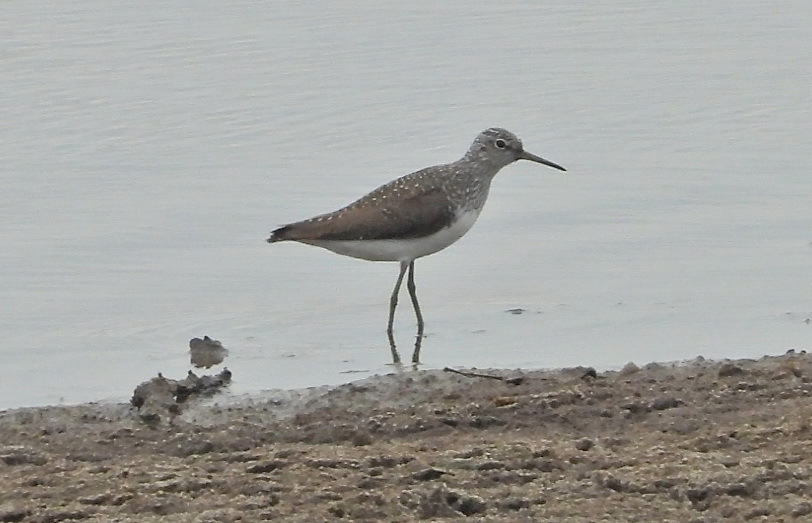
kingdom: Animalia
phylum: Chordata
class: Aves
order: Charadriiformes
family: Scolopacidae
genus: Tringa
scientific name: Tringa ochropus
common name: Green sandpiper
